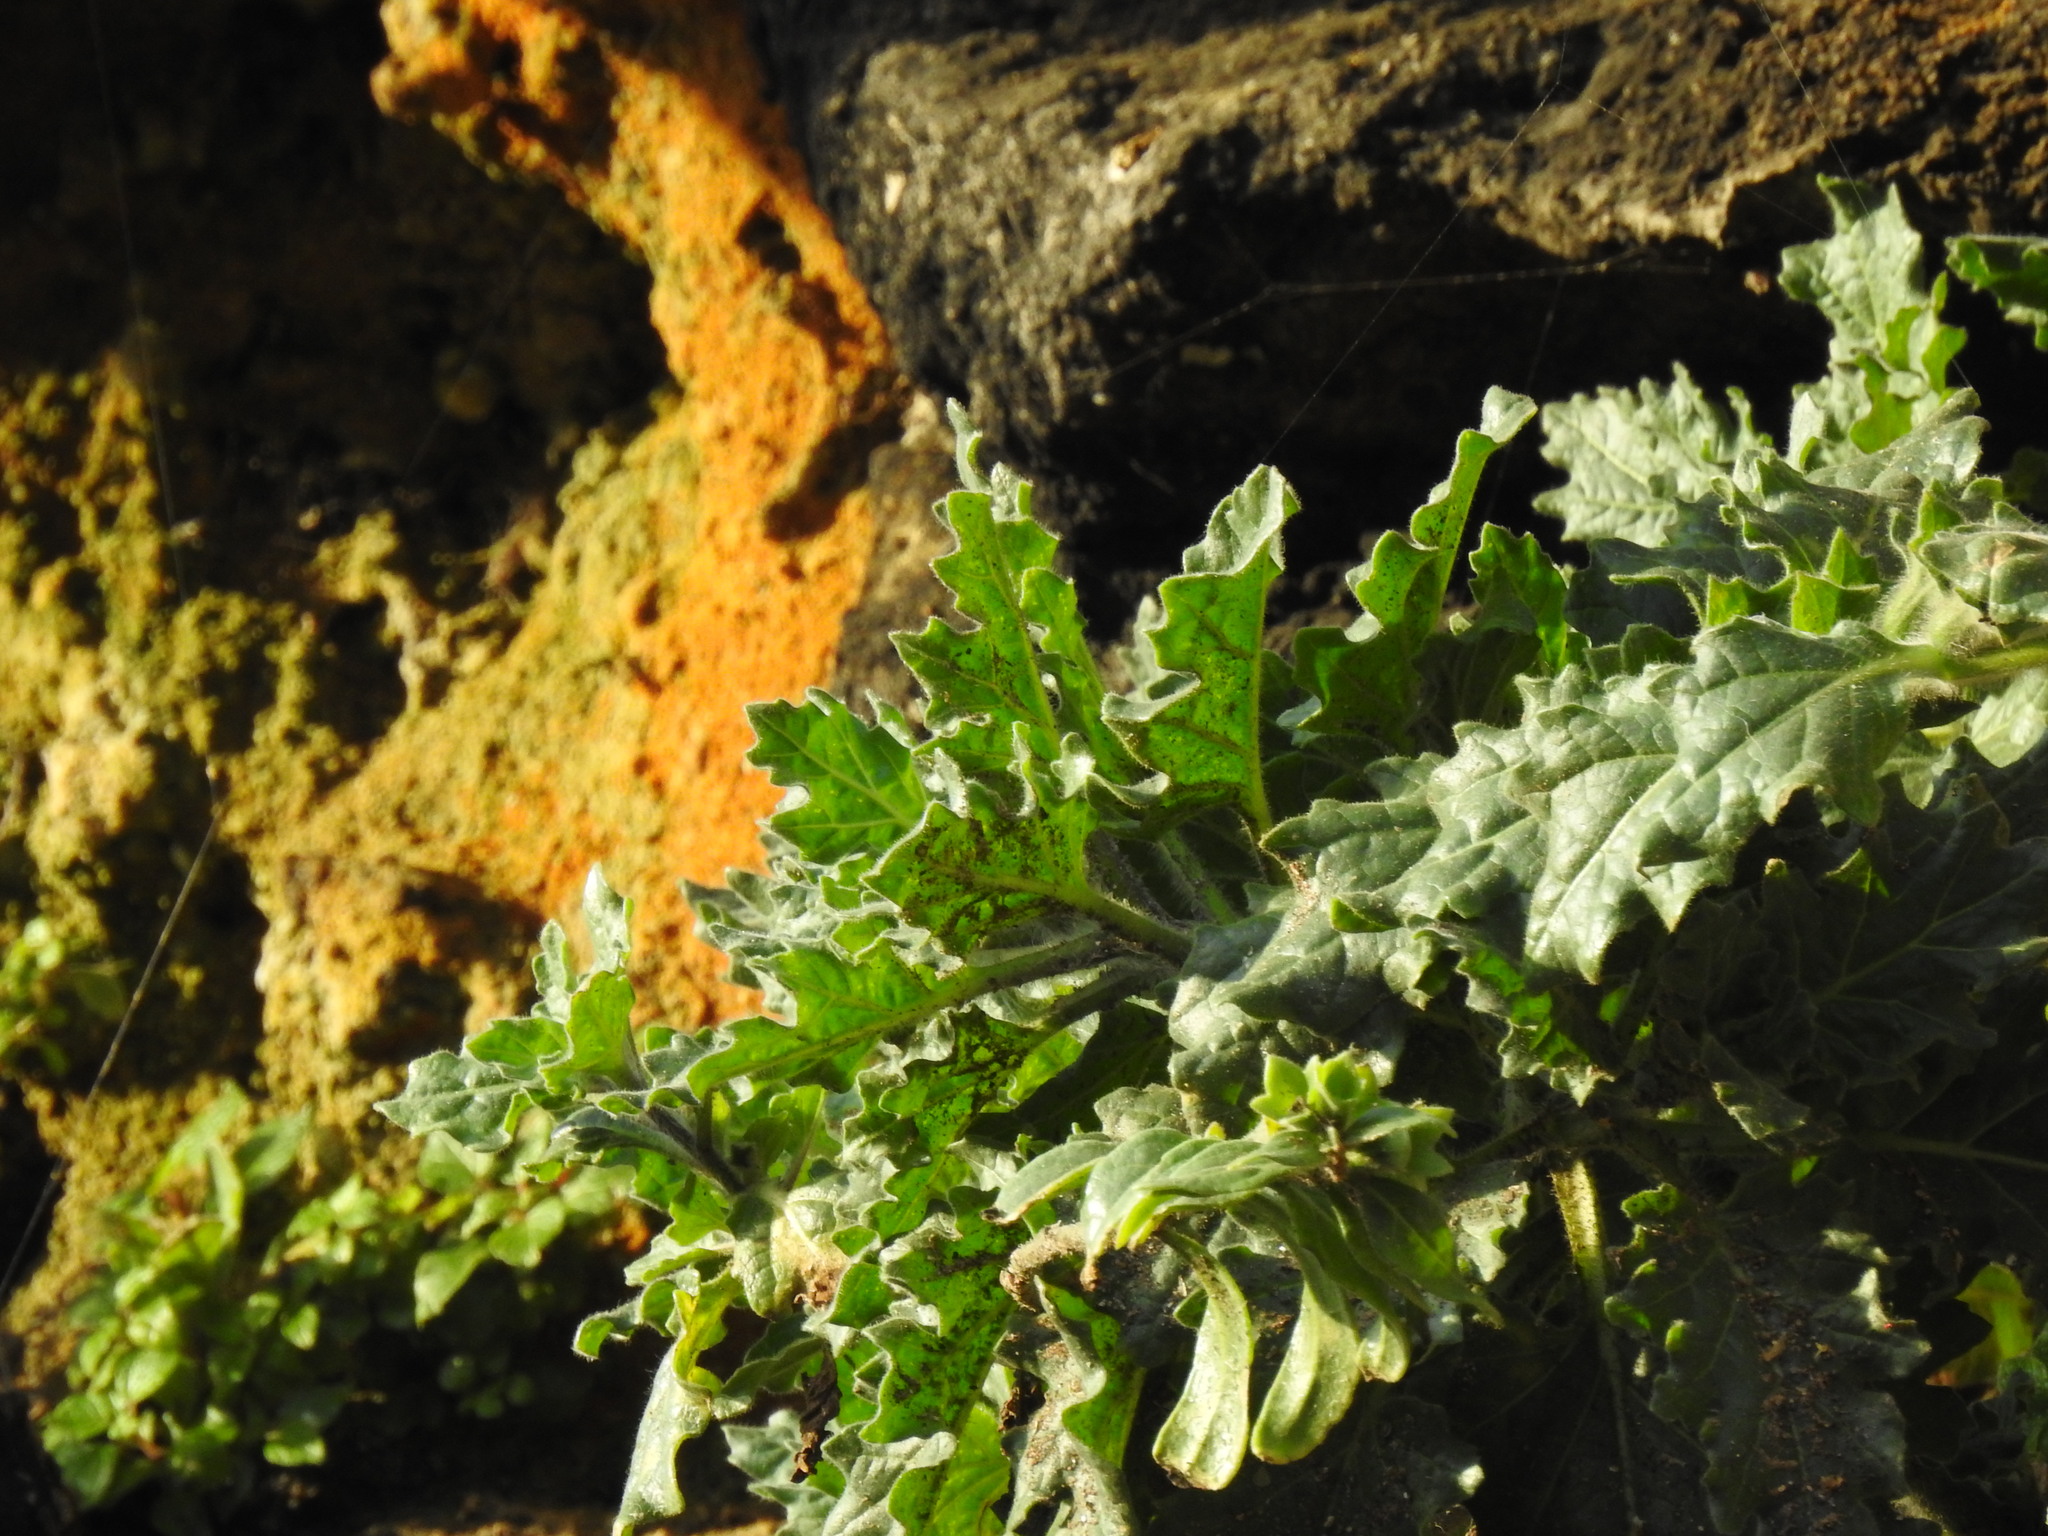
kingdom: Plantae
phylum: Tracheophyta
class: Magnoliopsida
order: Solanales
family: Solanaceae
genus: Hyoscyamus
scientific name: Hyoscyamus albus
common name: White henbane
